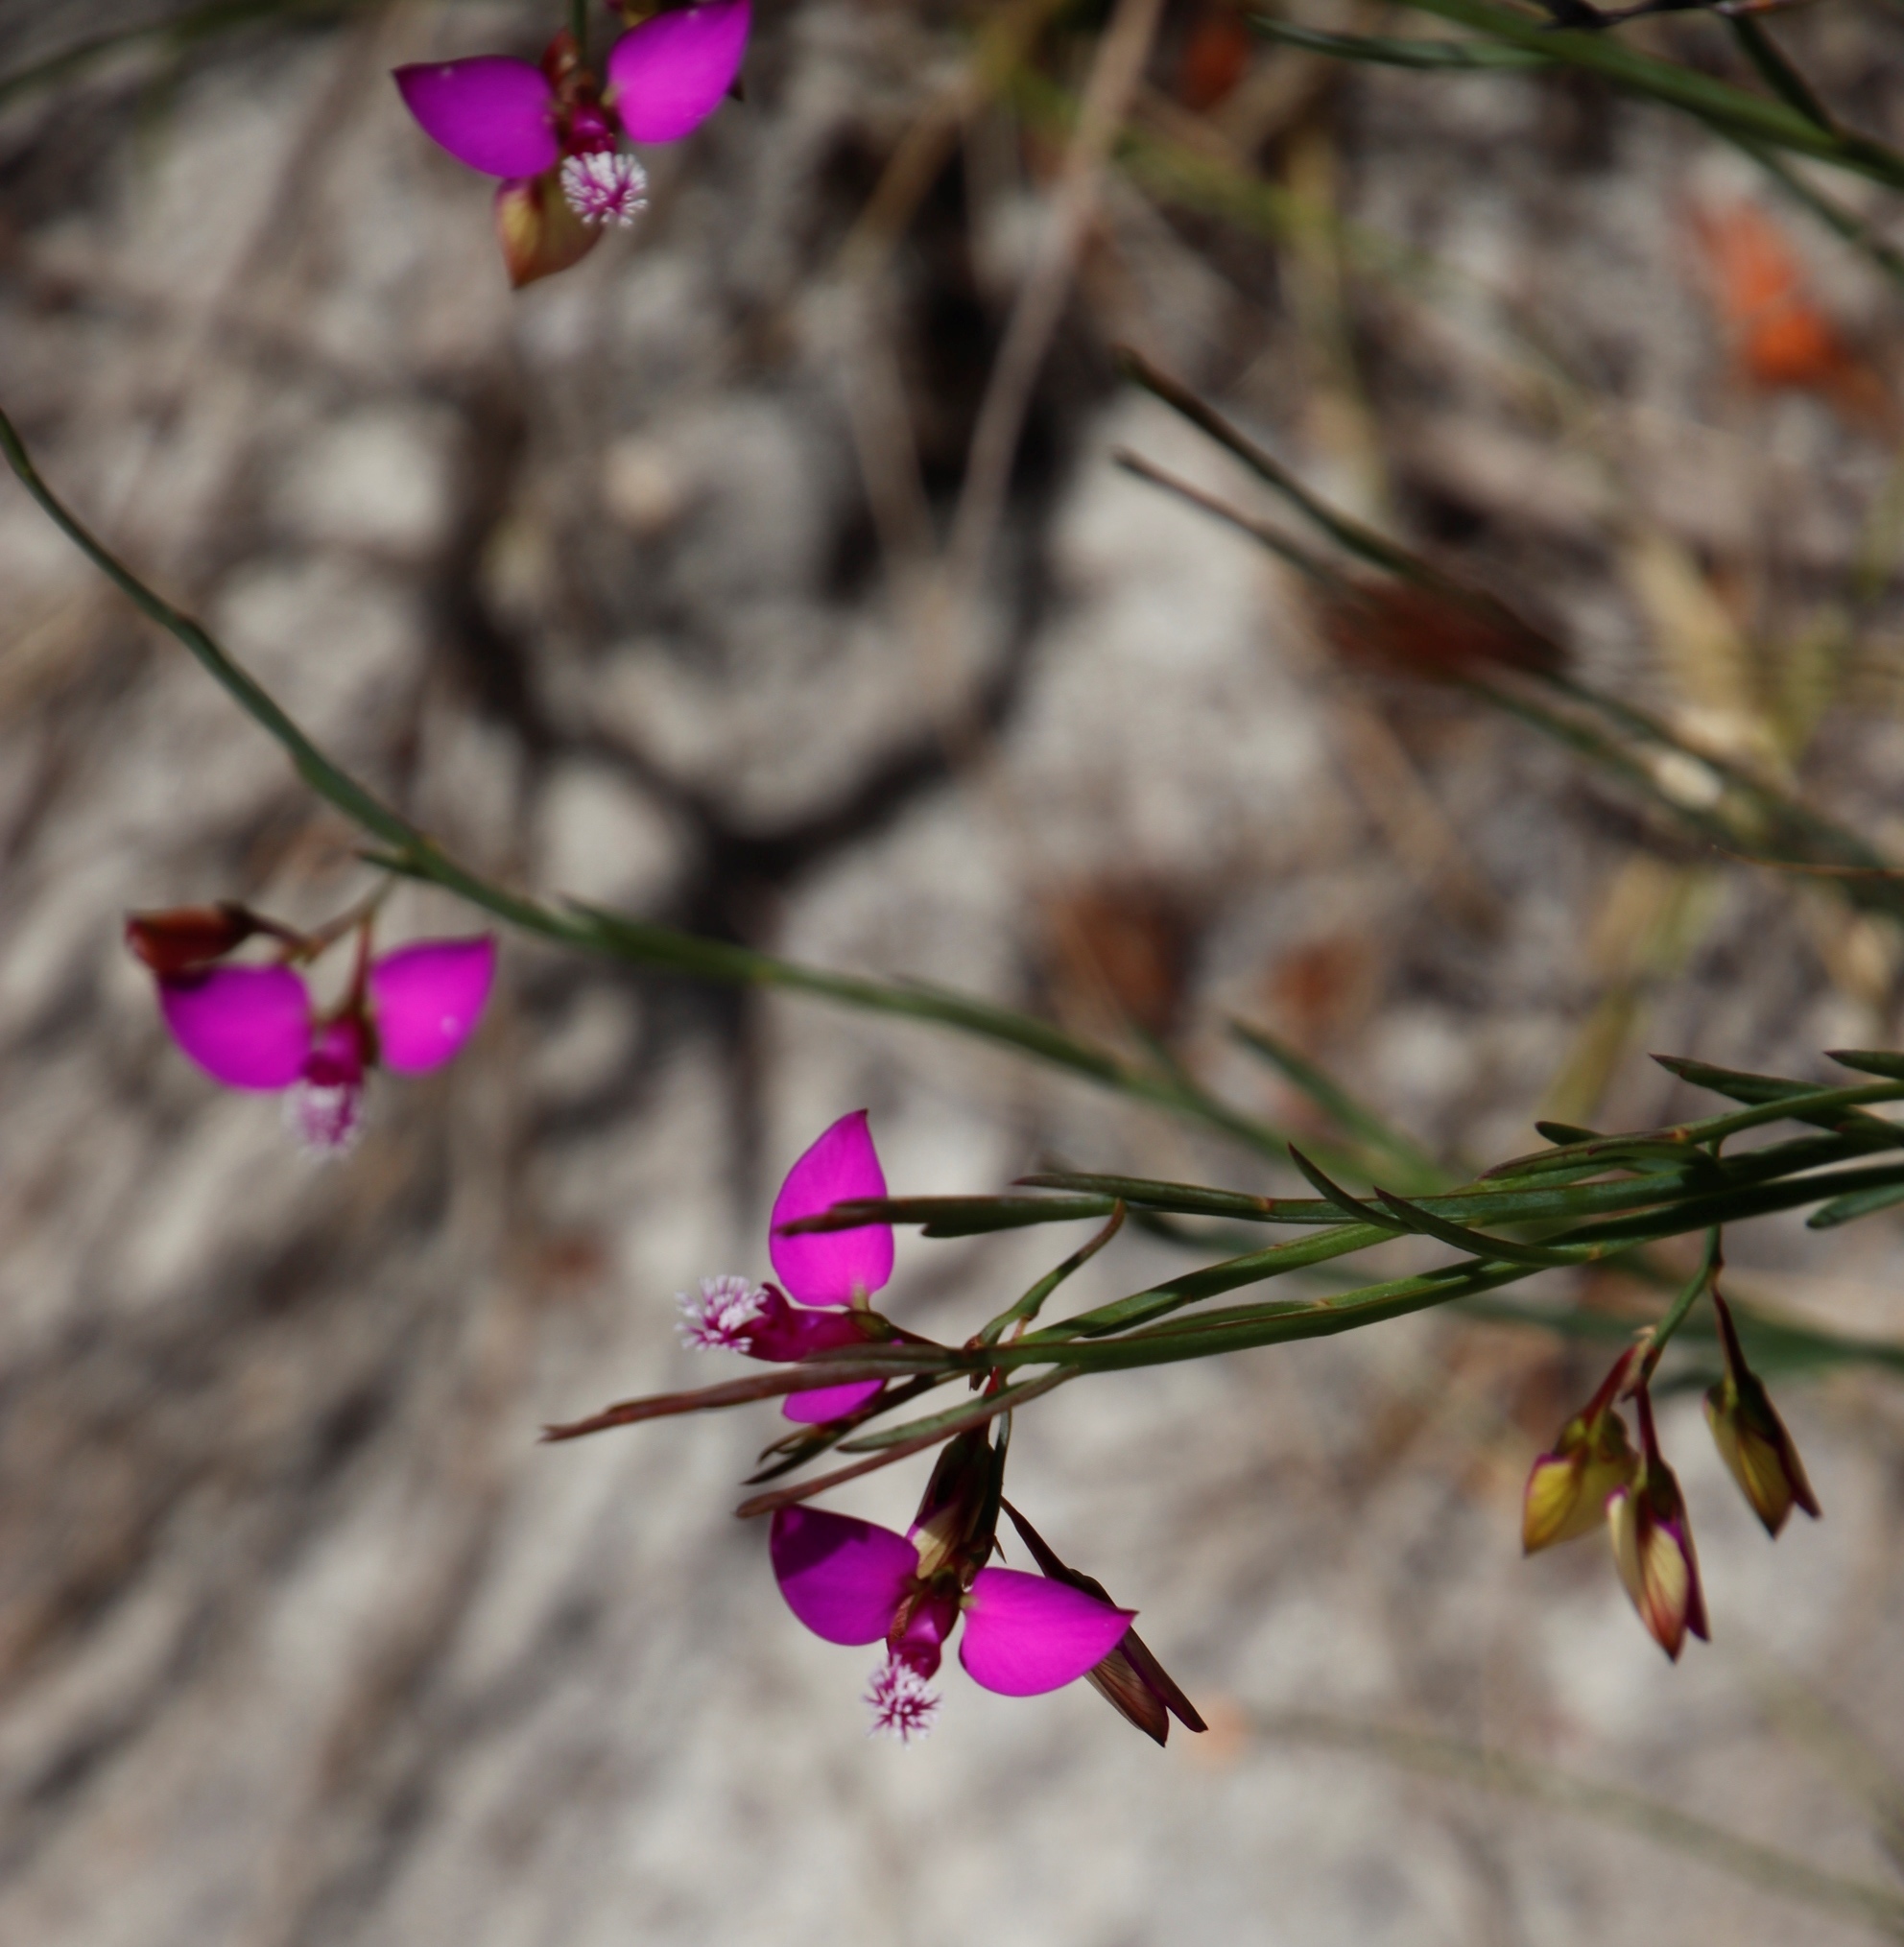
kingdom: Plantae
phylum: Tracheophyta
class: Magnoliopsida
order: Fabales
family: Polygalaceae
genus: Polygala
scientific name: Polygala refracta
